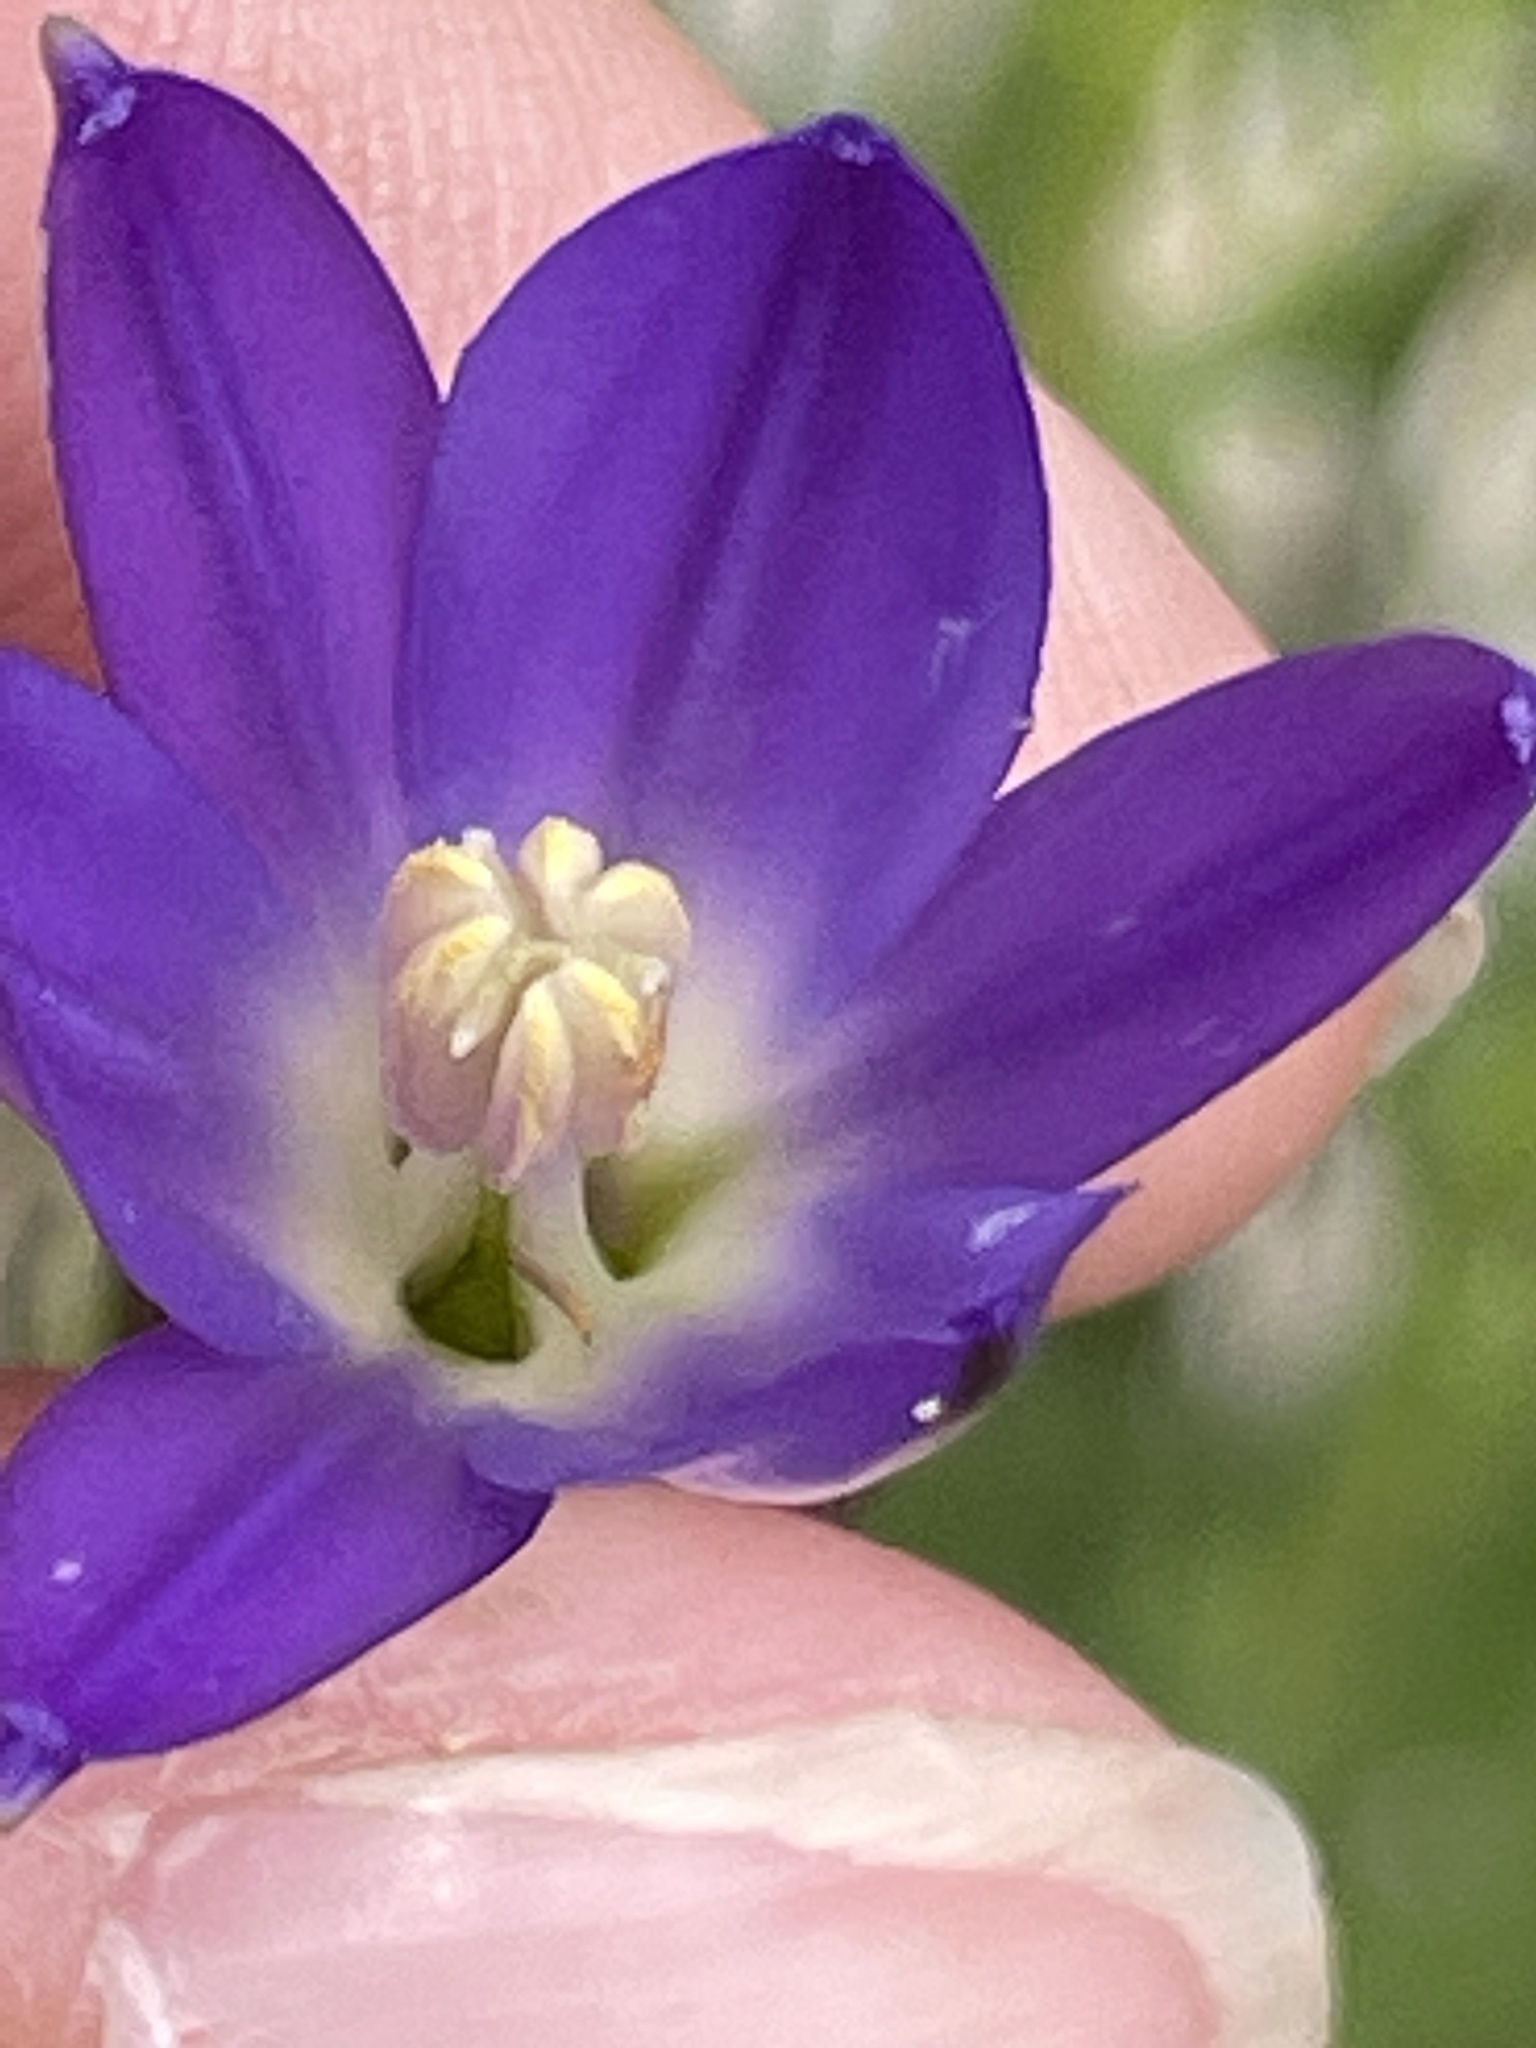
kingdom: Plantae
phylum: Tracheophyta
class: Liliopsida
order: Asparagales
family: Asparagaceae
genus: Brodiaea
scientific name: Brodiaea orcuttii
